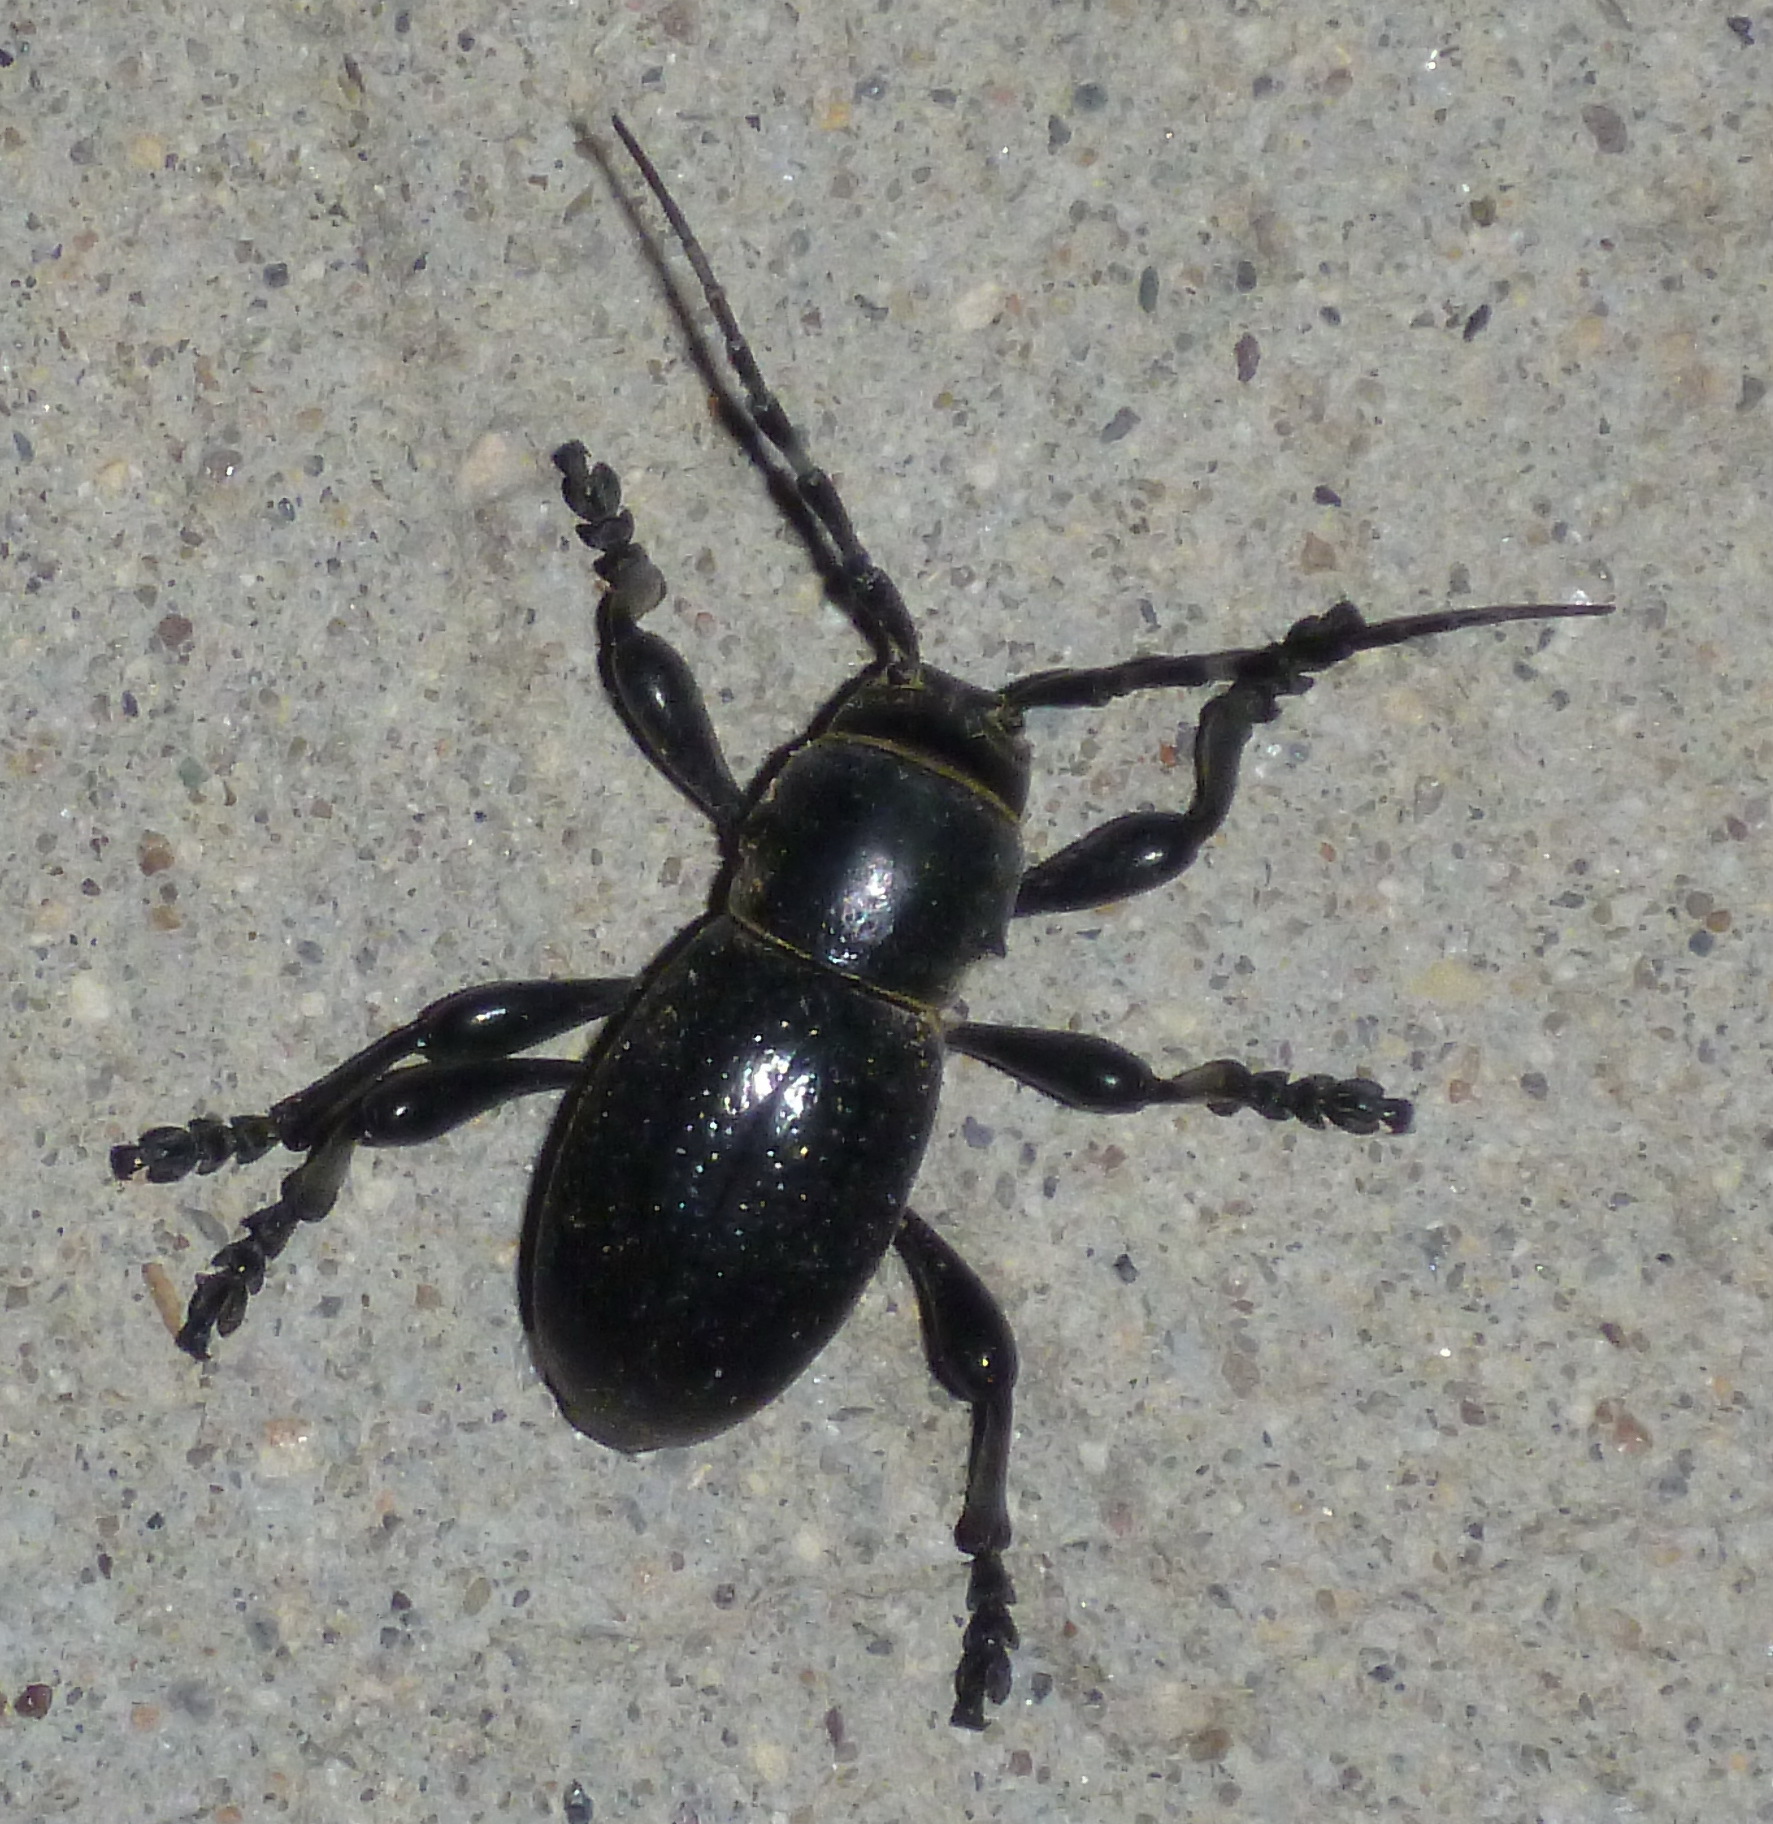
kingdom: Animalia
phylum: Arthropoda
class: Insecta
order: Coleoptera
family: Cerambycidae
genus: Moneilema
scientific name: Moneilema armatum
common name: Long-horned beetle
